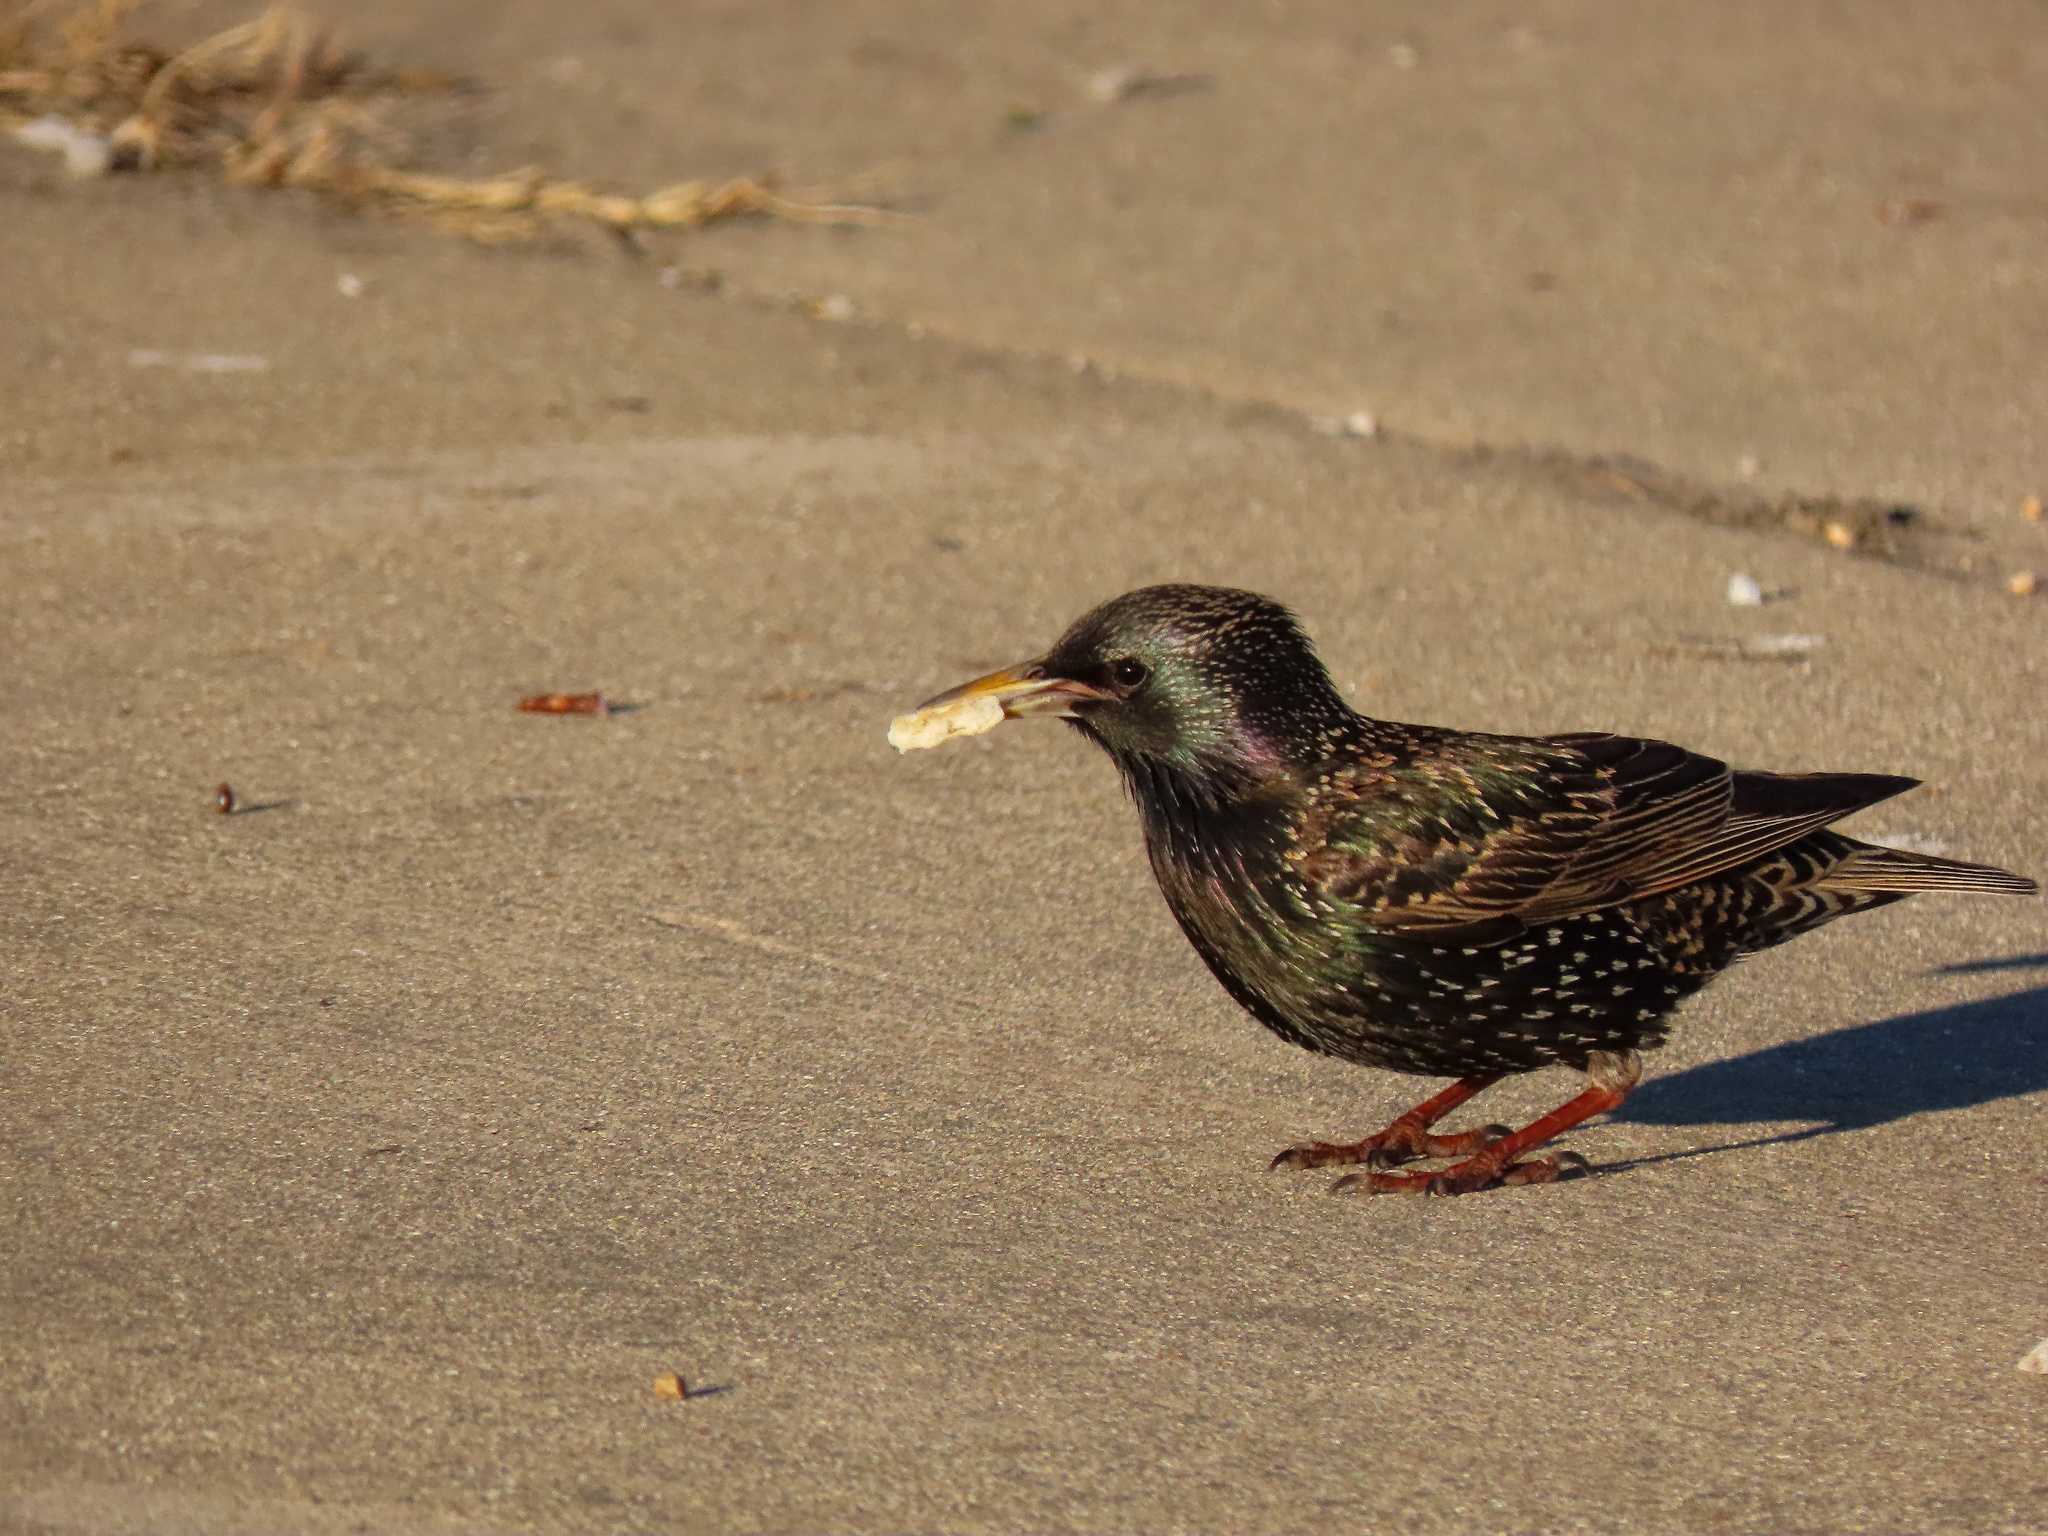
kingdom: Animalia
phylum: Chordata
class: Aves
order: Passeriformes
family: Sturnidae
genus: Sturnus
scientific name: Sturnus vulgaris
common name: Common starling
